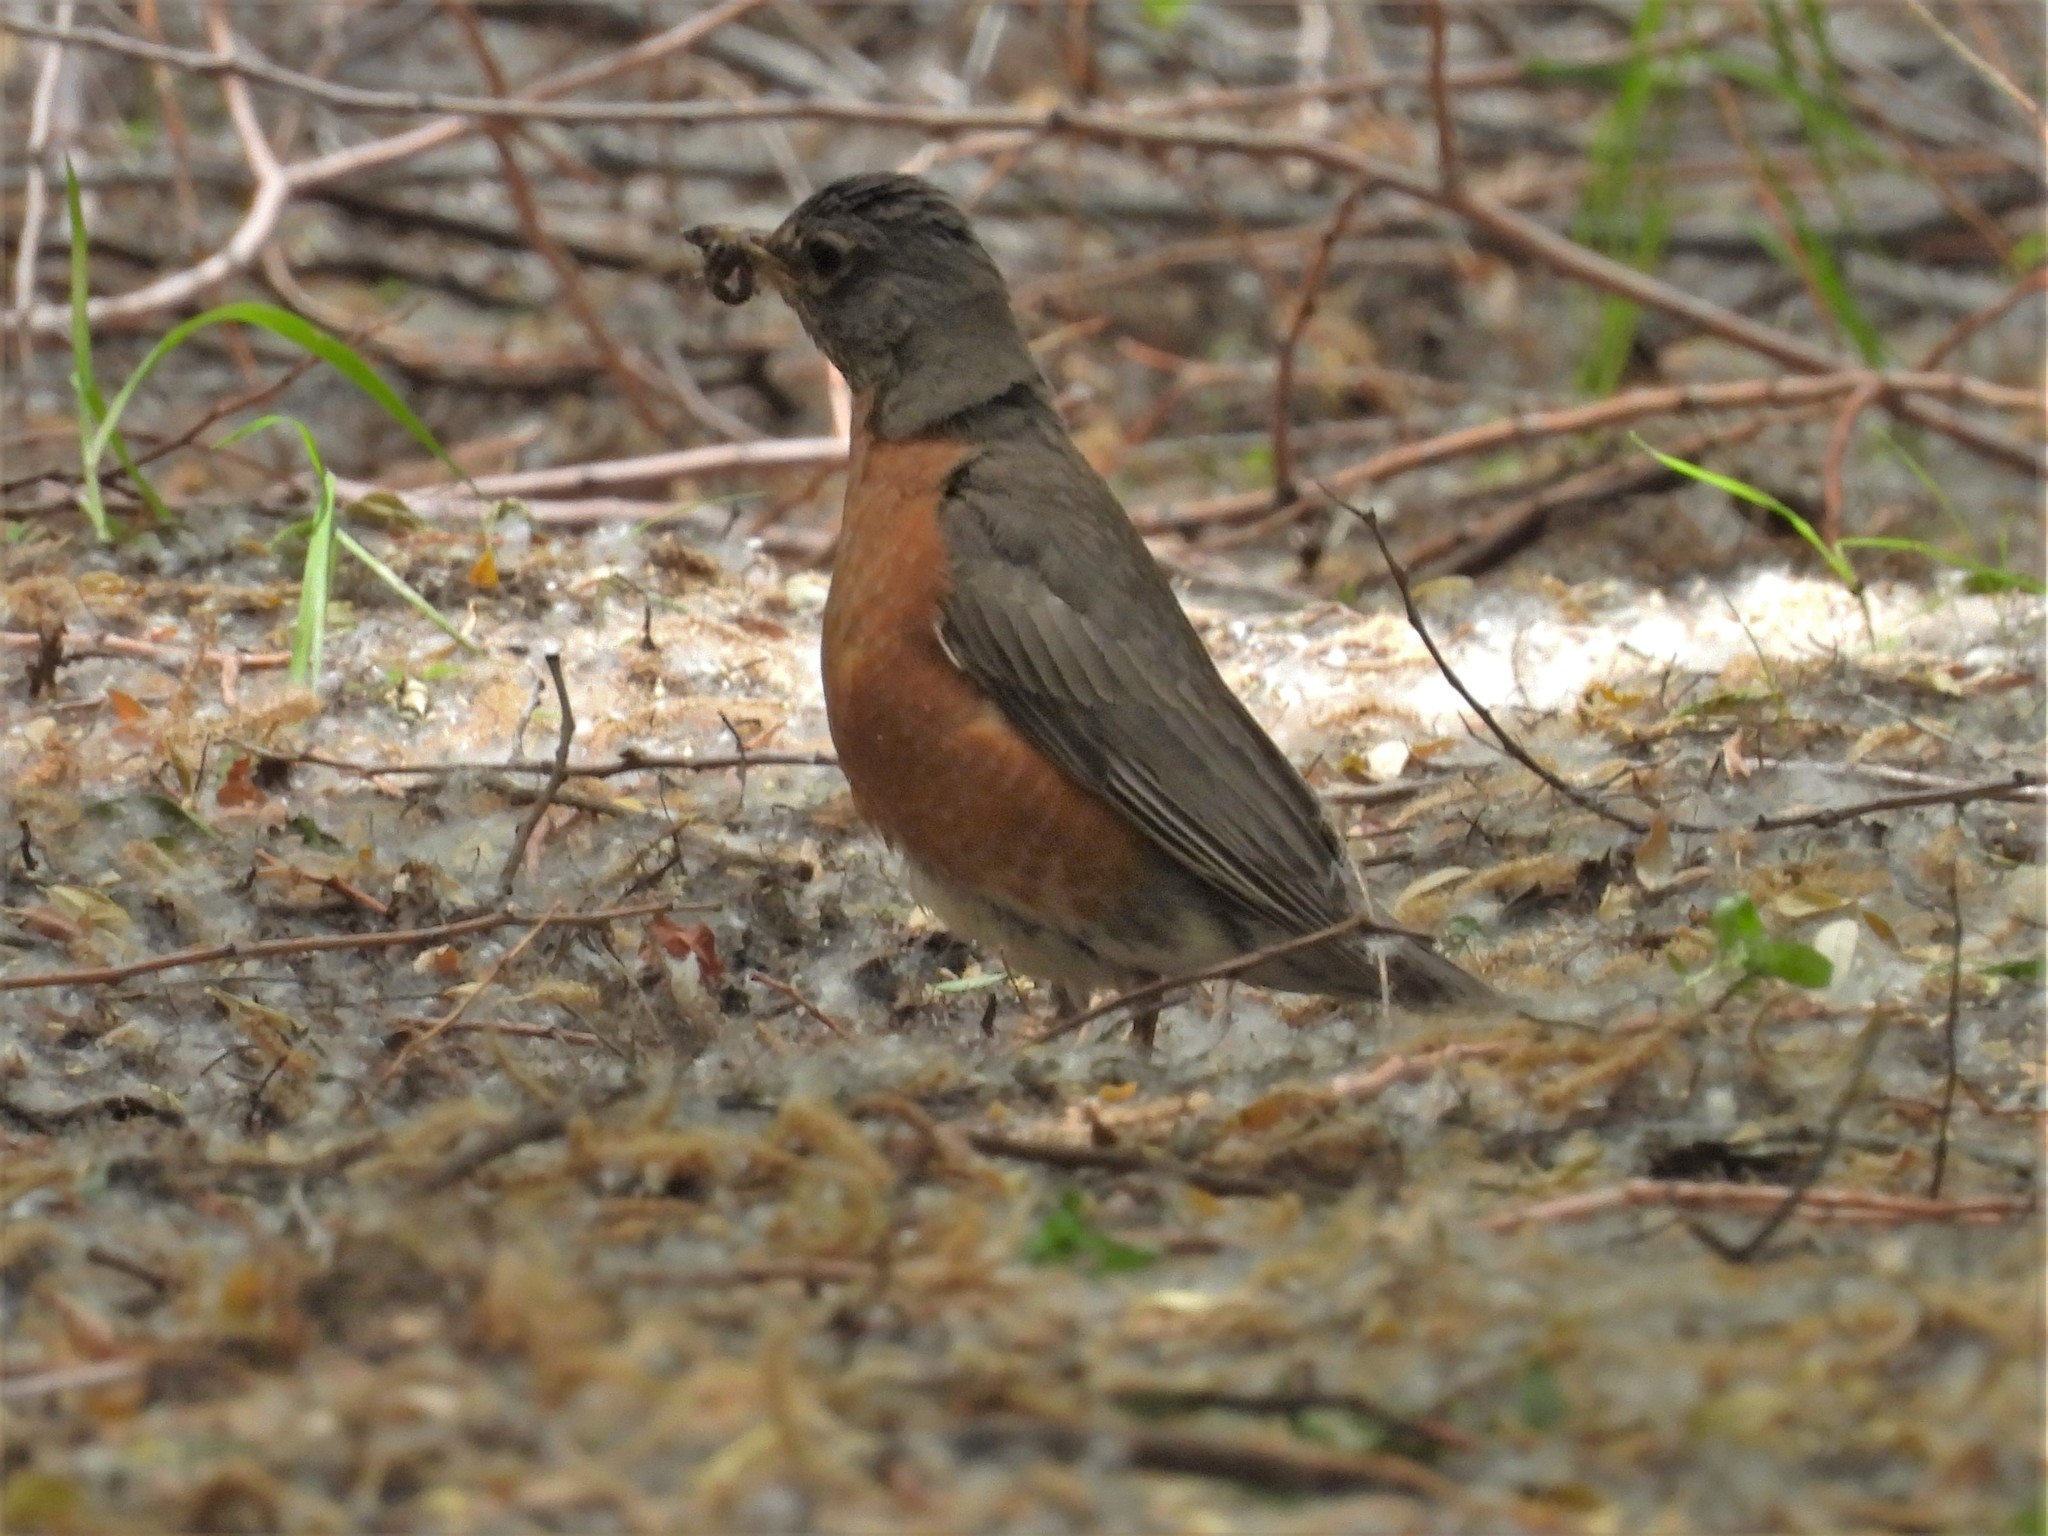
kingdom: Animalia
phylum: Chordata
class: Aves
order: Passeriformes
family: Turdidae
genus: Turdus
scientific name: Turdus migratorius
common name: American robin
